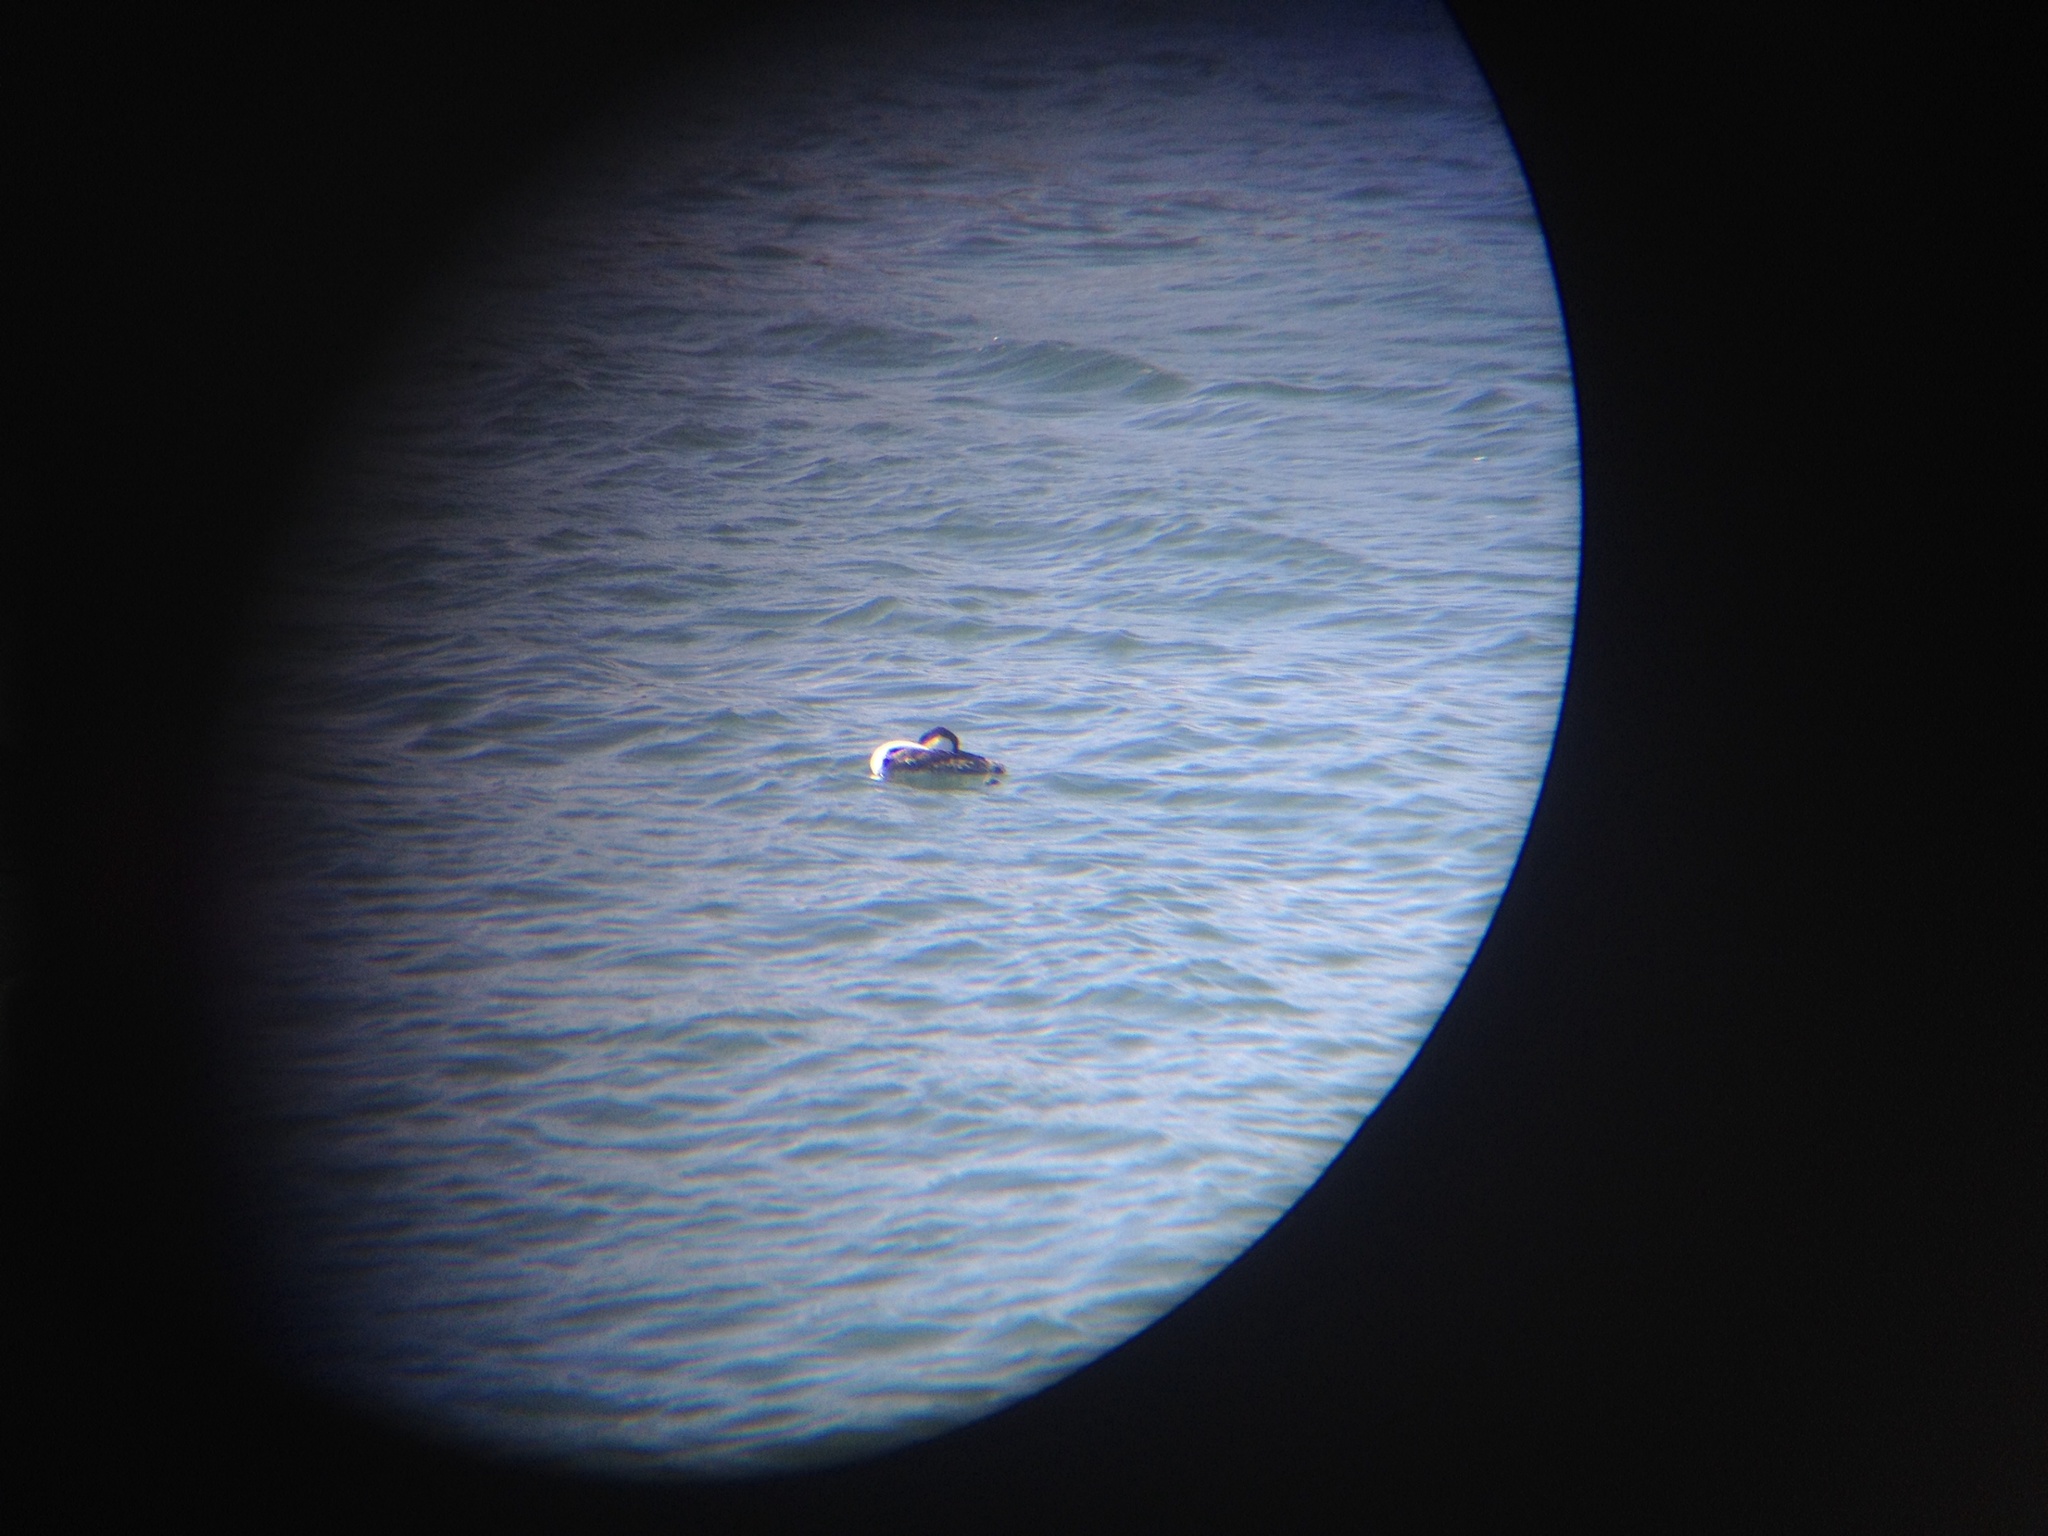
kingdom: Animalia
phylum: Chordata
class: Aves
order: Podicipediformes
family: Podicipedidae
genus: Aechmophorus
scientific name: Aechmophorus occidentalis
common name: Western grebe
